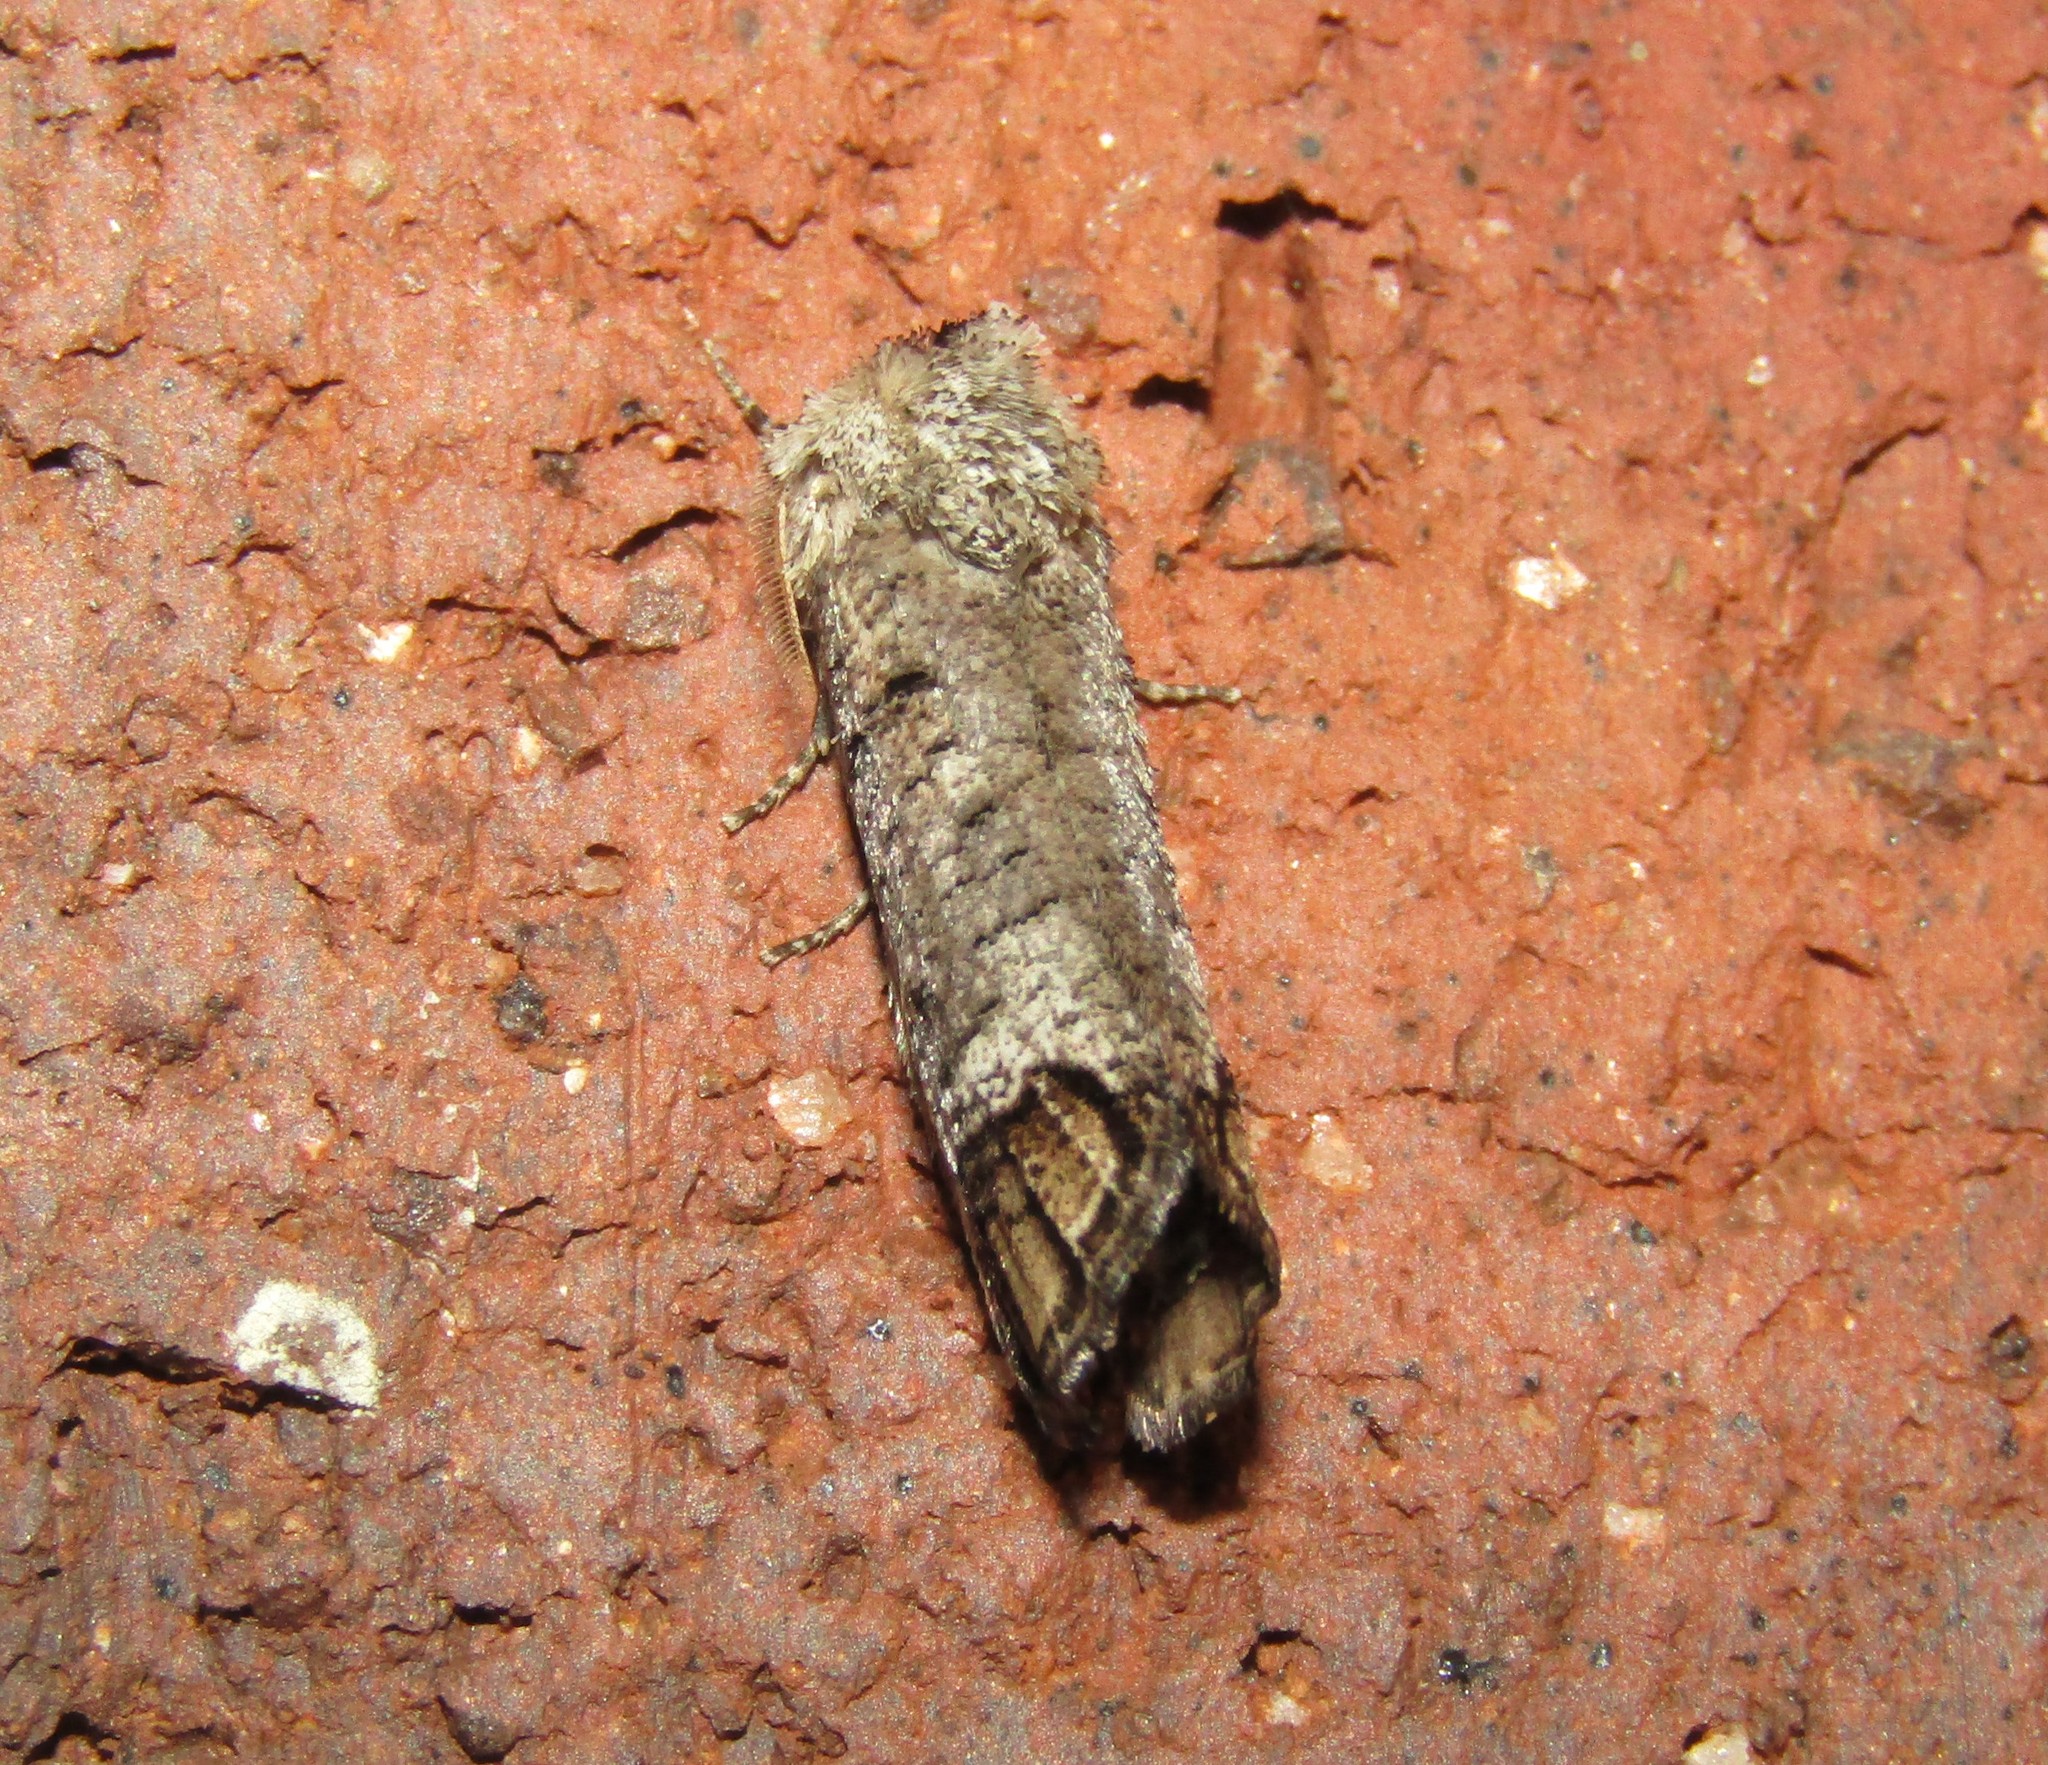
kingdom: Animalia
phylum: Arthropoda
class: Insecta
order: Lepidoptera
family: Cossidae
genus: Cossula
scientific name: Cossula magnifica
